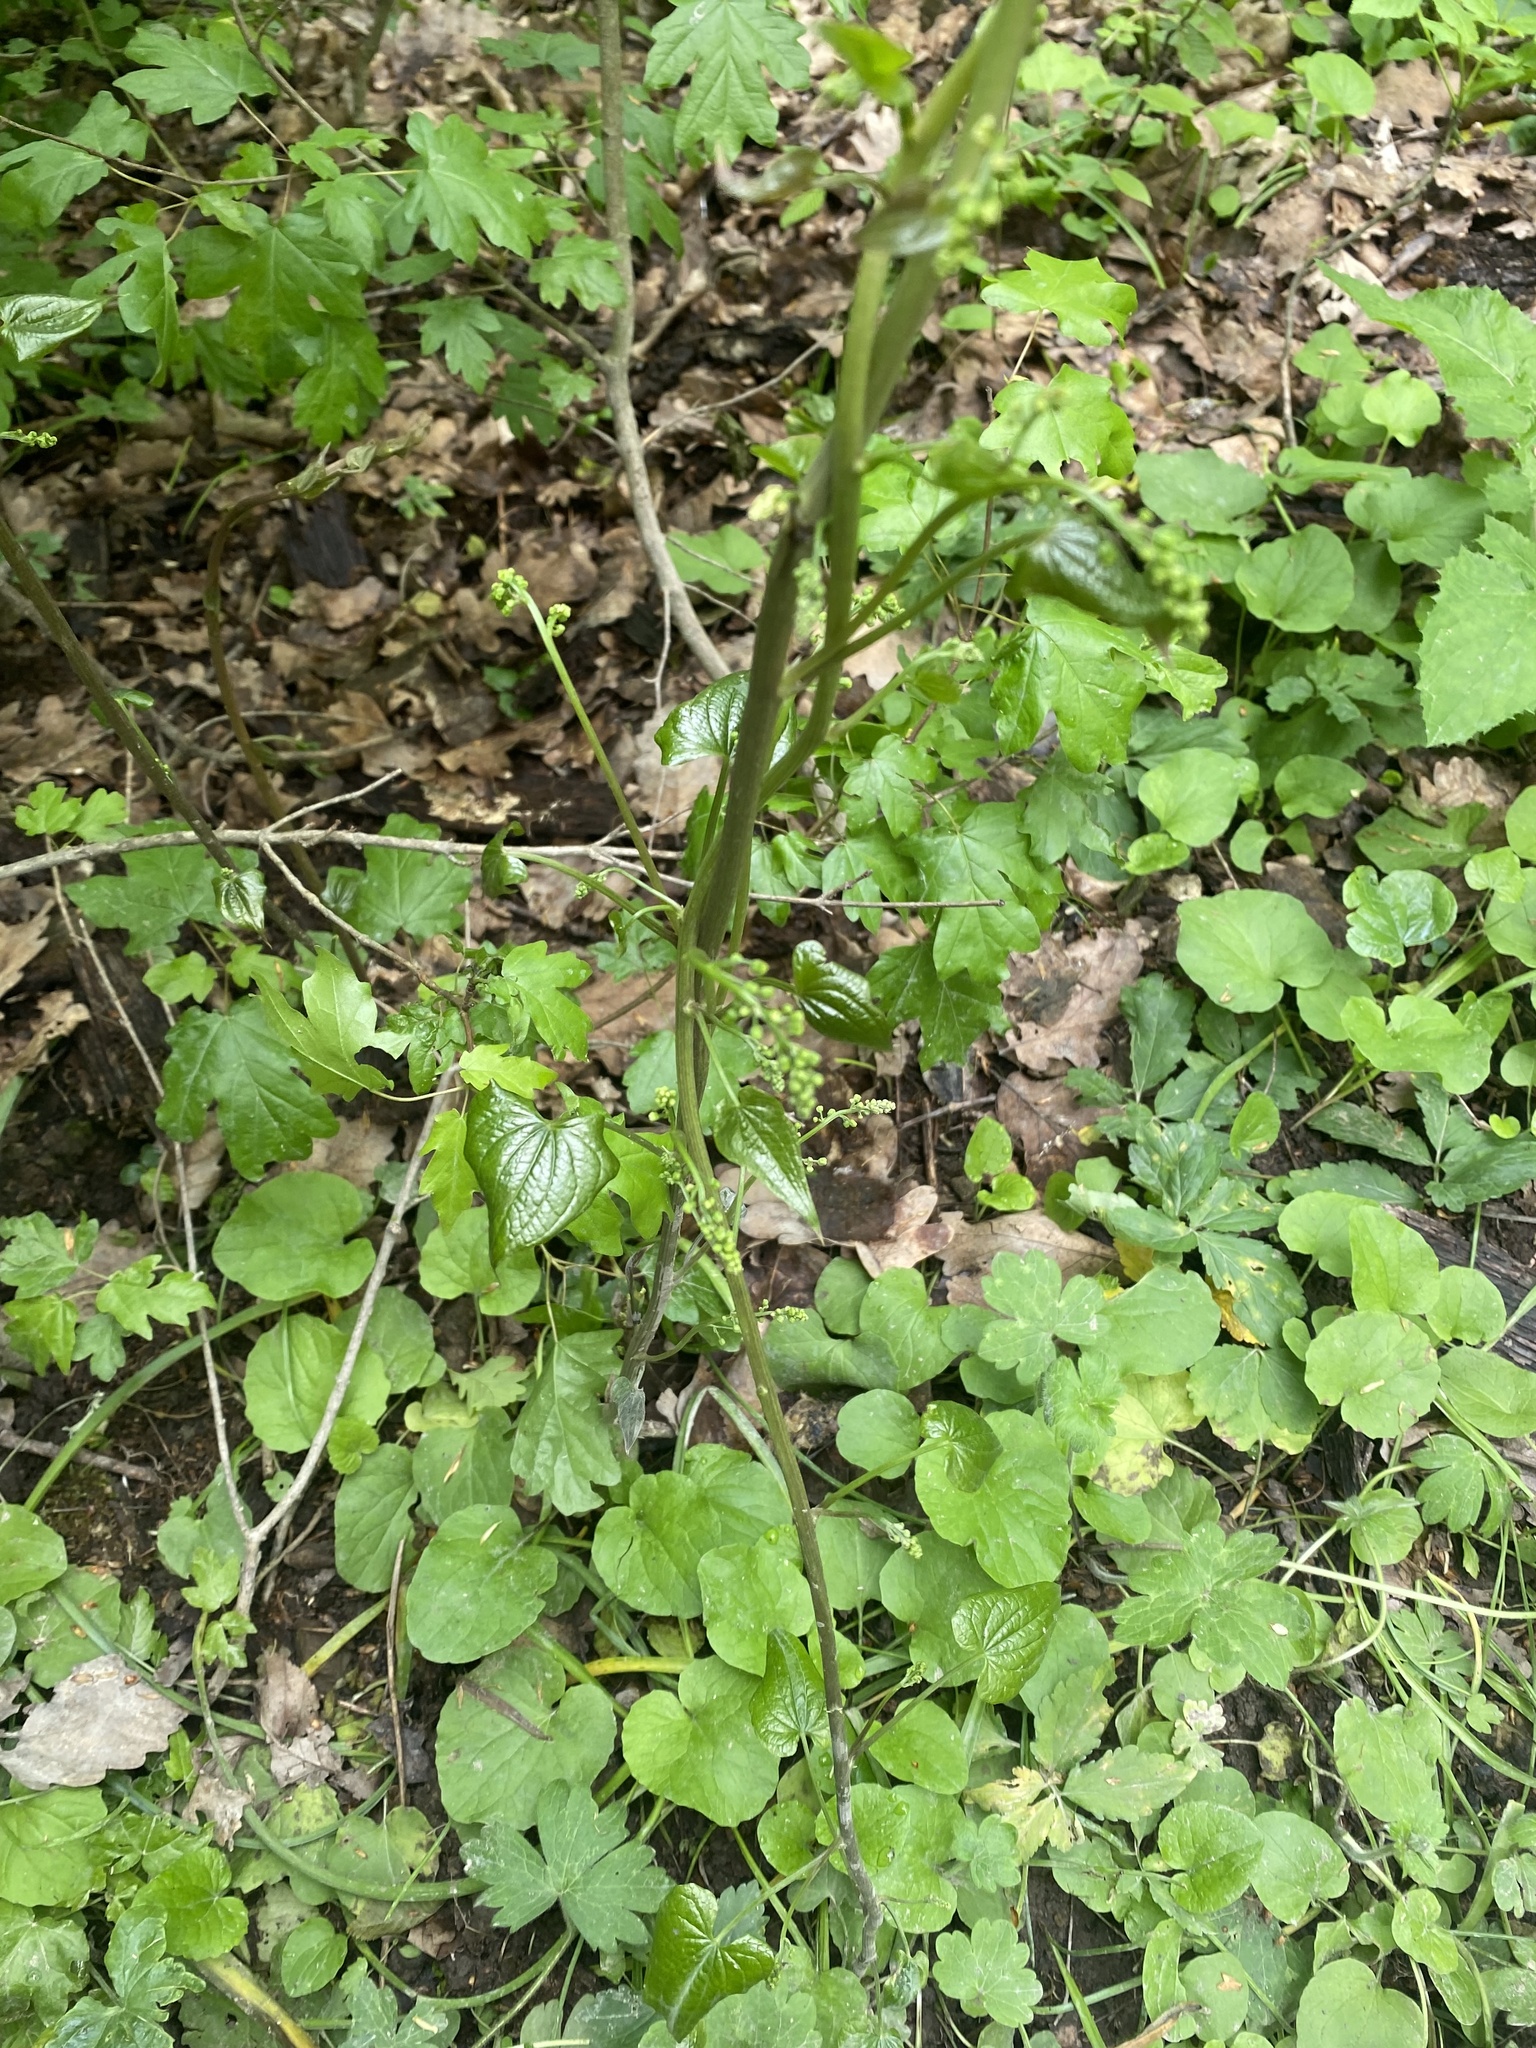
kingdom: Plantae
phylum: Tracheophyta
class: Liliopsida
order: Dioscoreales
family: Dioscoreaceae
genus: Dioscorea
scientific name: Dioscorea communis
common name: Black-bindweed
